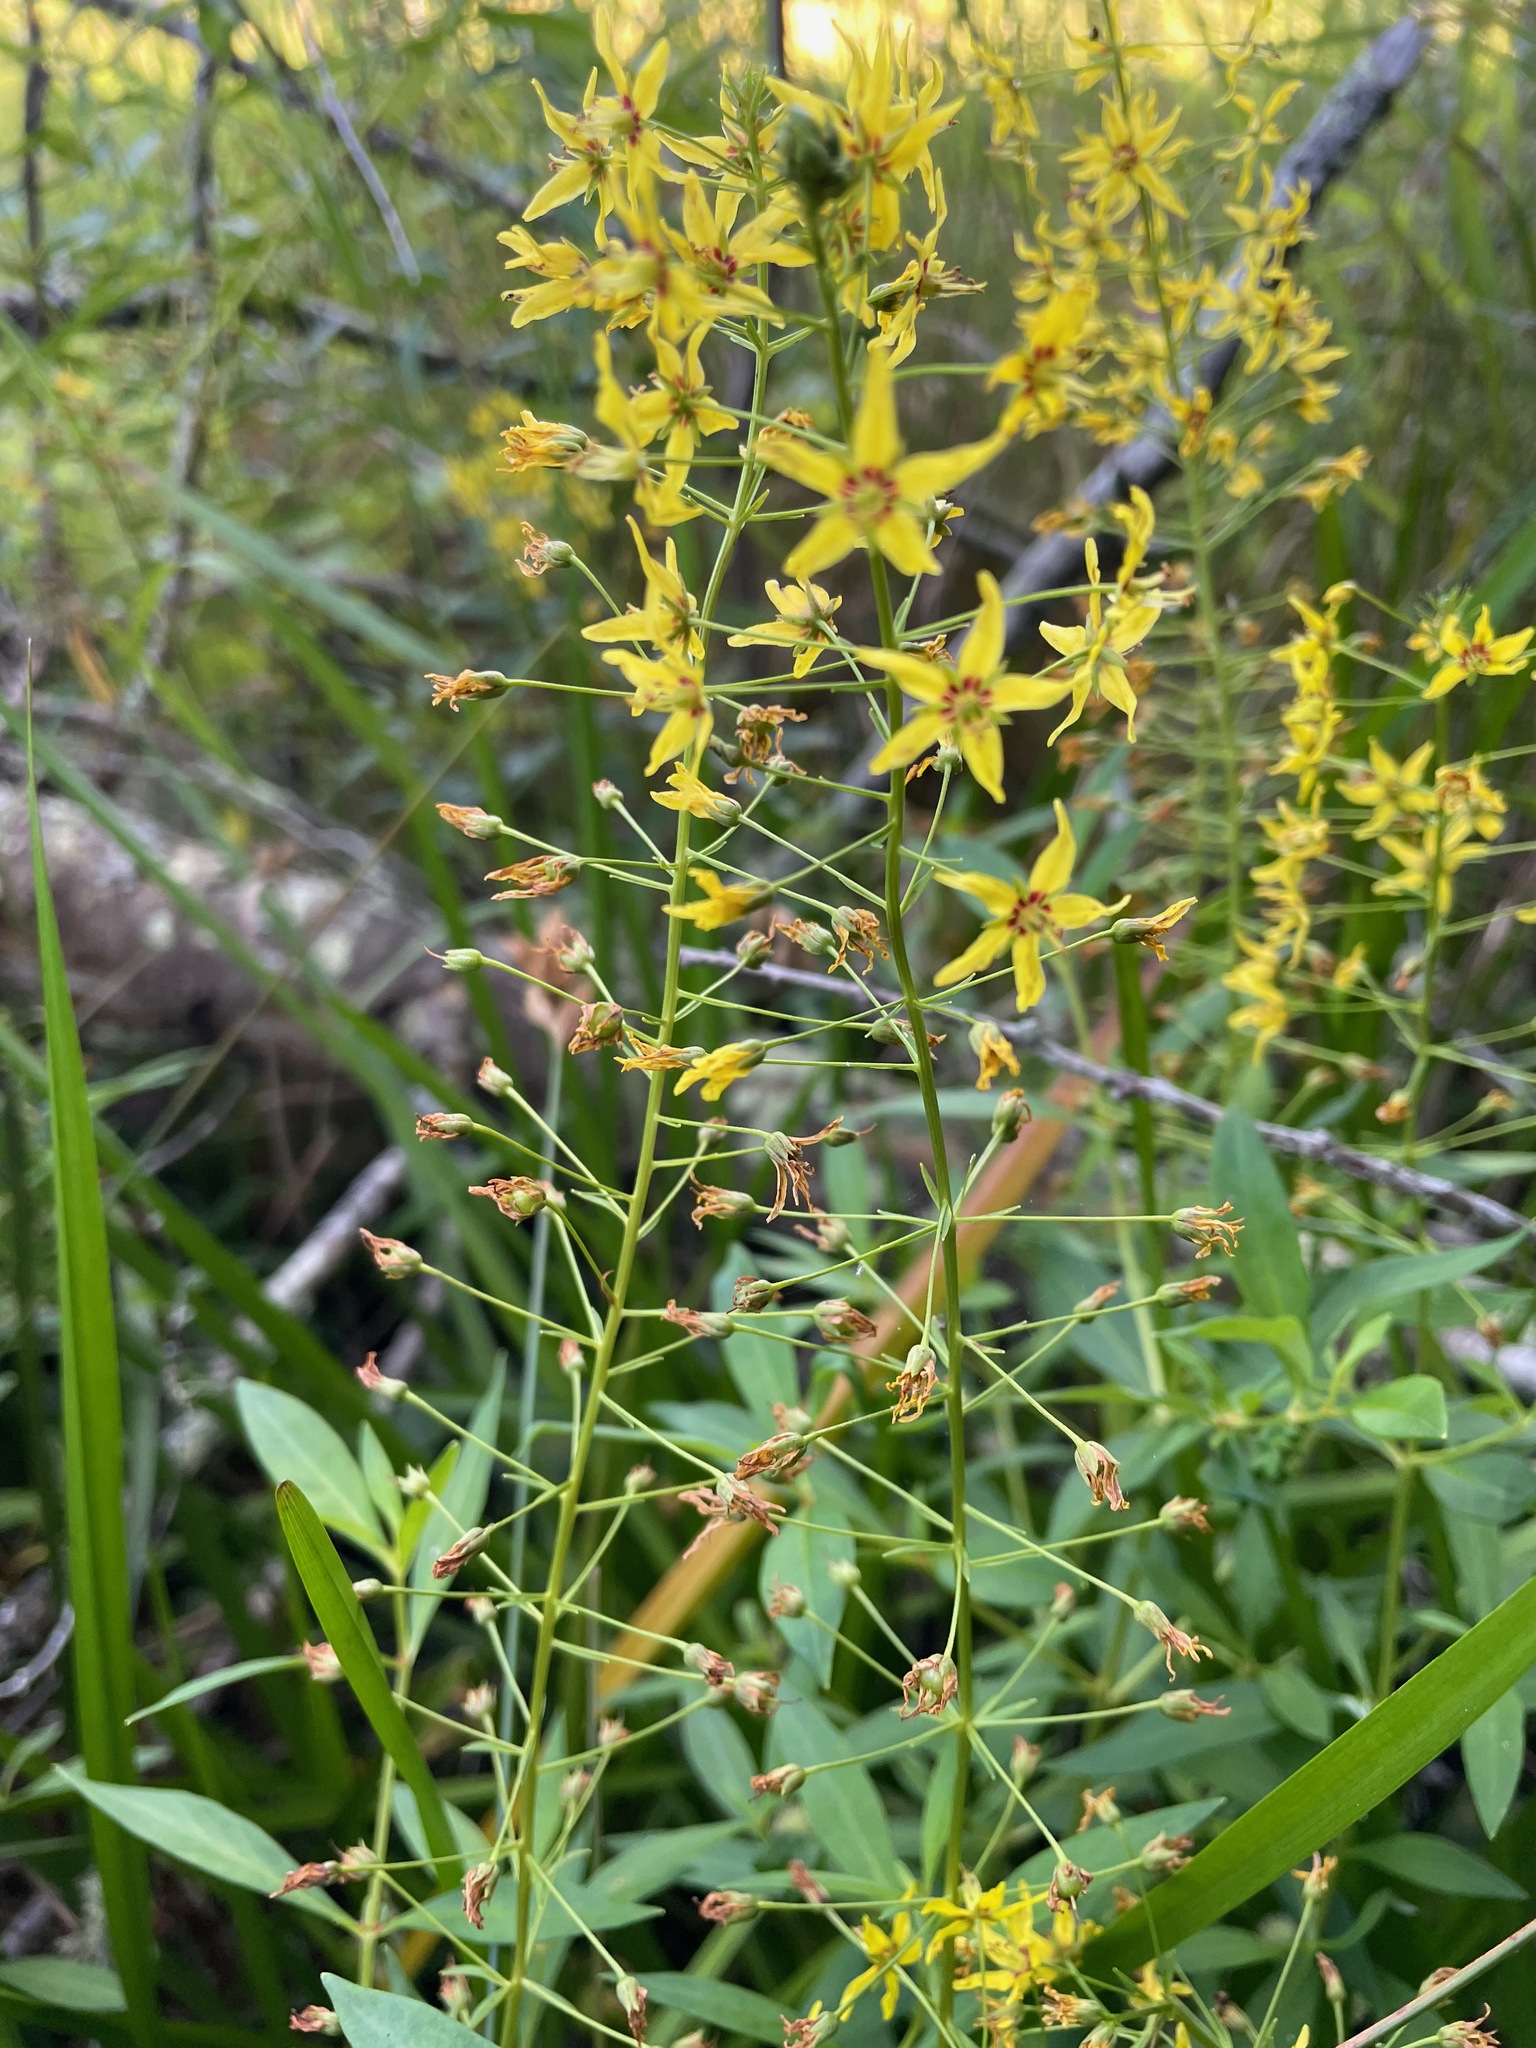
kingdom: Plantae
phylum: Tracheophyta
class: Magnoliopsida
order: Ericales
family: Primulaceae
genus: Lysimachia
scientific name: Lysimachia terrestris
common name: Lake loosestrife
